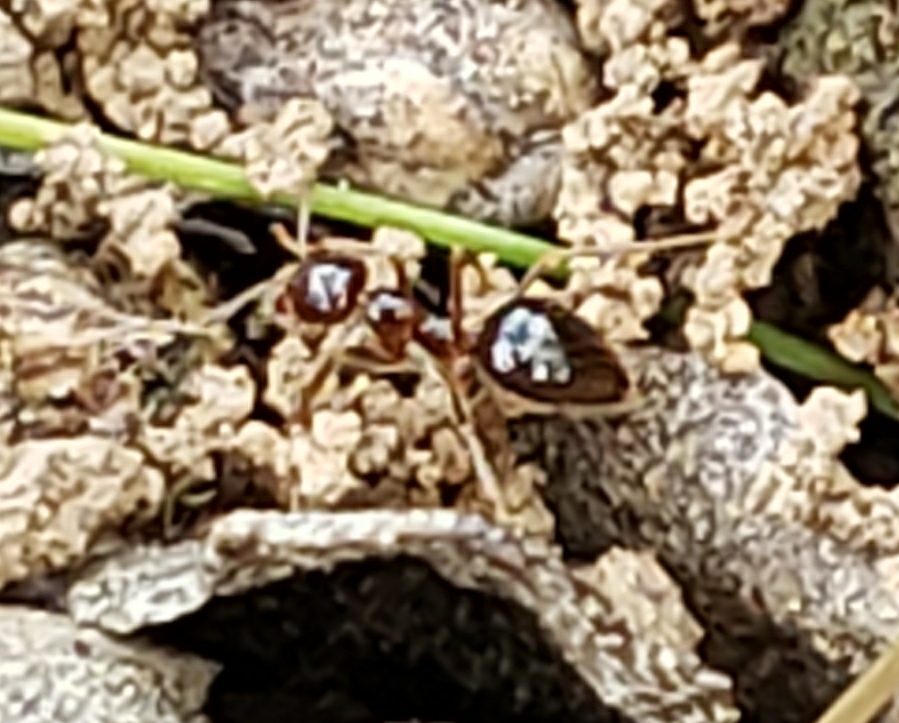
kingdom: Animalia
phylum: Arthropoda
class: Insecta
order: Hymenoptera
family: Formicidae
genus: Prenolepis
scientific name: Prenolepis imparis
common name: Small honey ant
